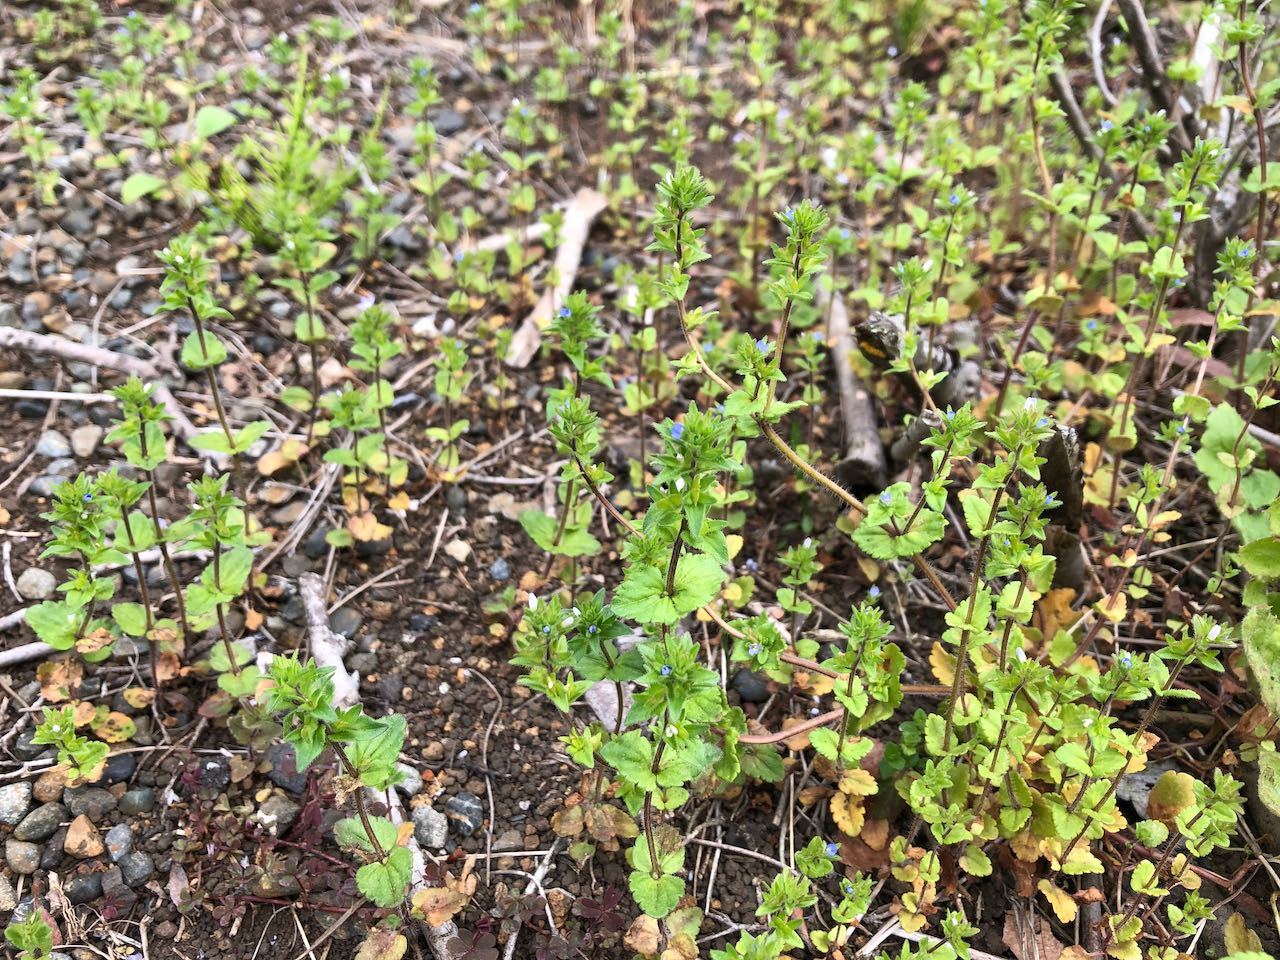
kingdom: Plantae
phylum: Tracheophyta
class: Magnoliopsida
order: Lamiales
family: Plantaginaceae
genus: Veronica
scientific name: Veronica arvensis
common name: Corn speedwell
